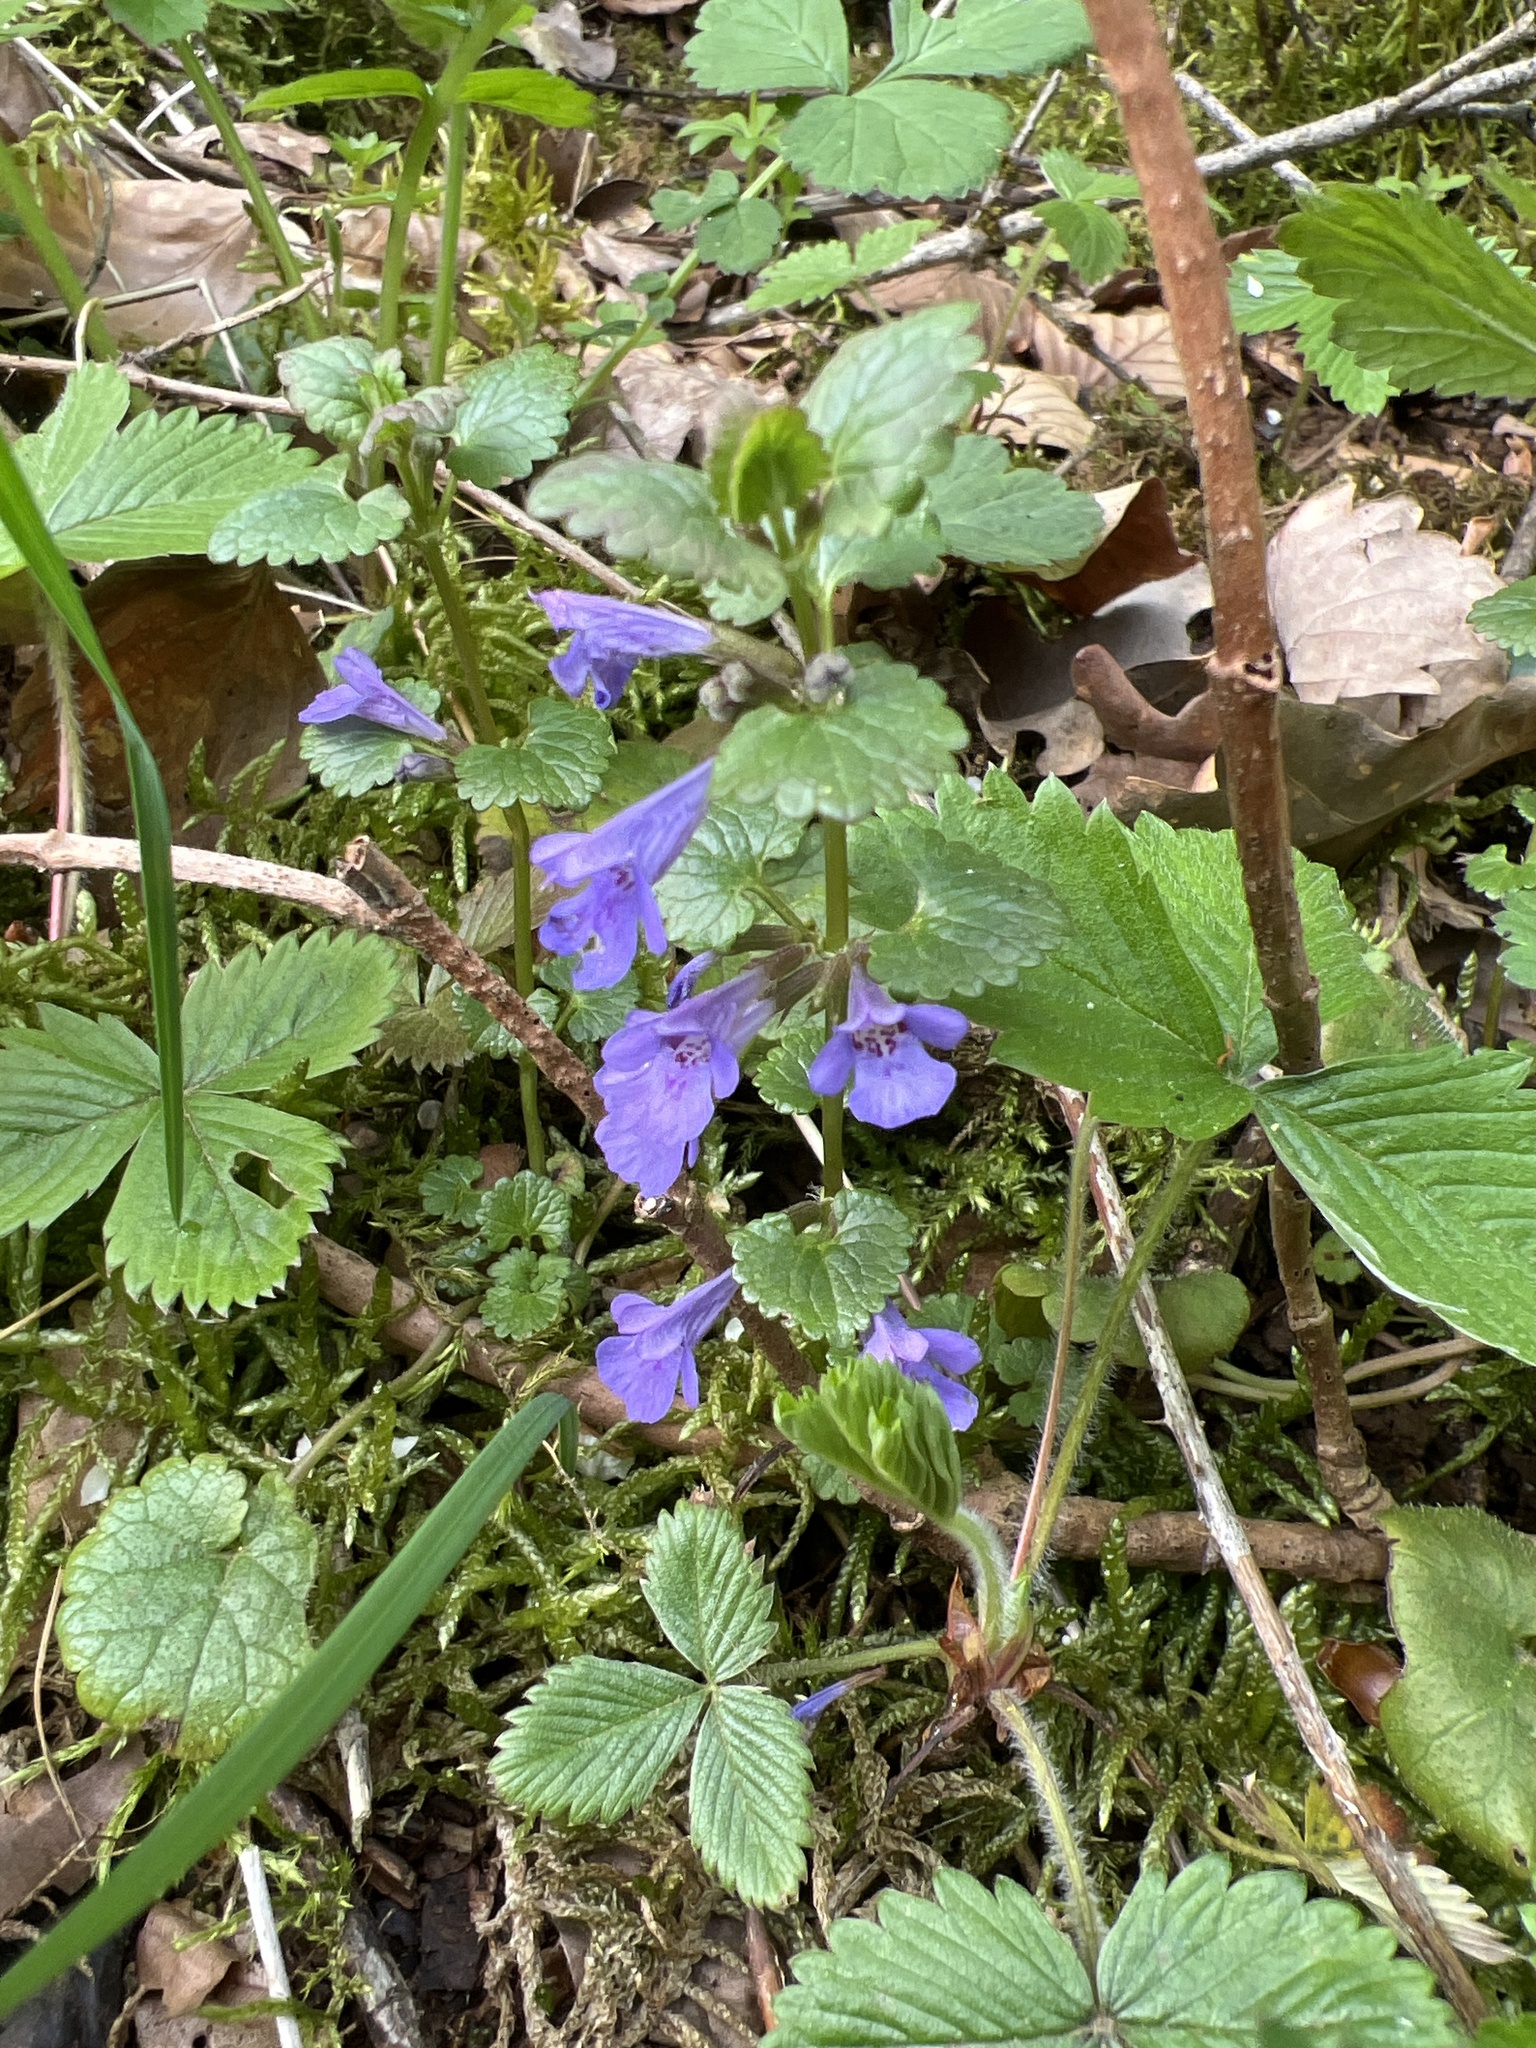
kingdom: Plantae
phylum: Tracheophyta
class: Magnoliopsida
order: Lamiales
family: Lamiaceae
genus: Glechoma
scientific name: Glechoma hederacea
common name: Ground ivy
